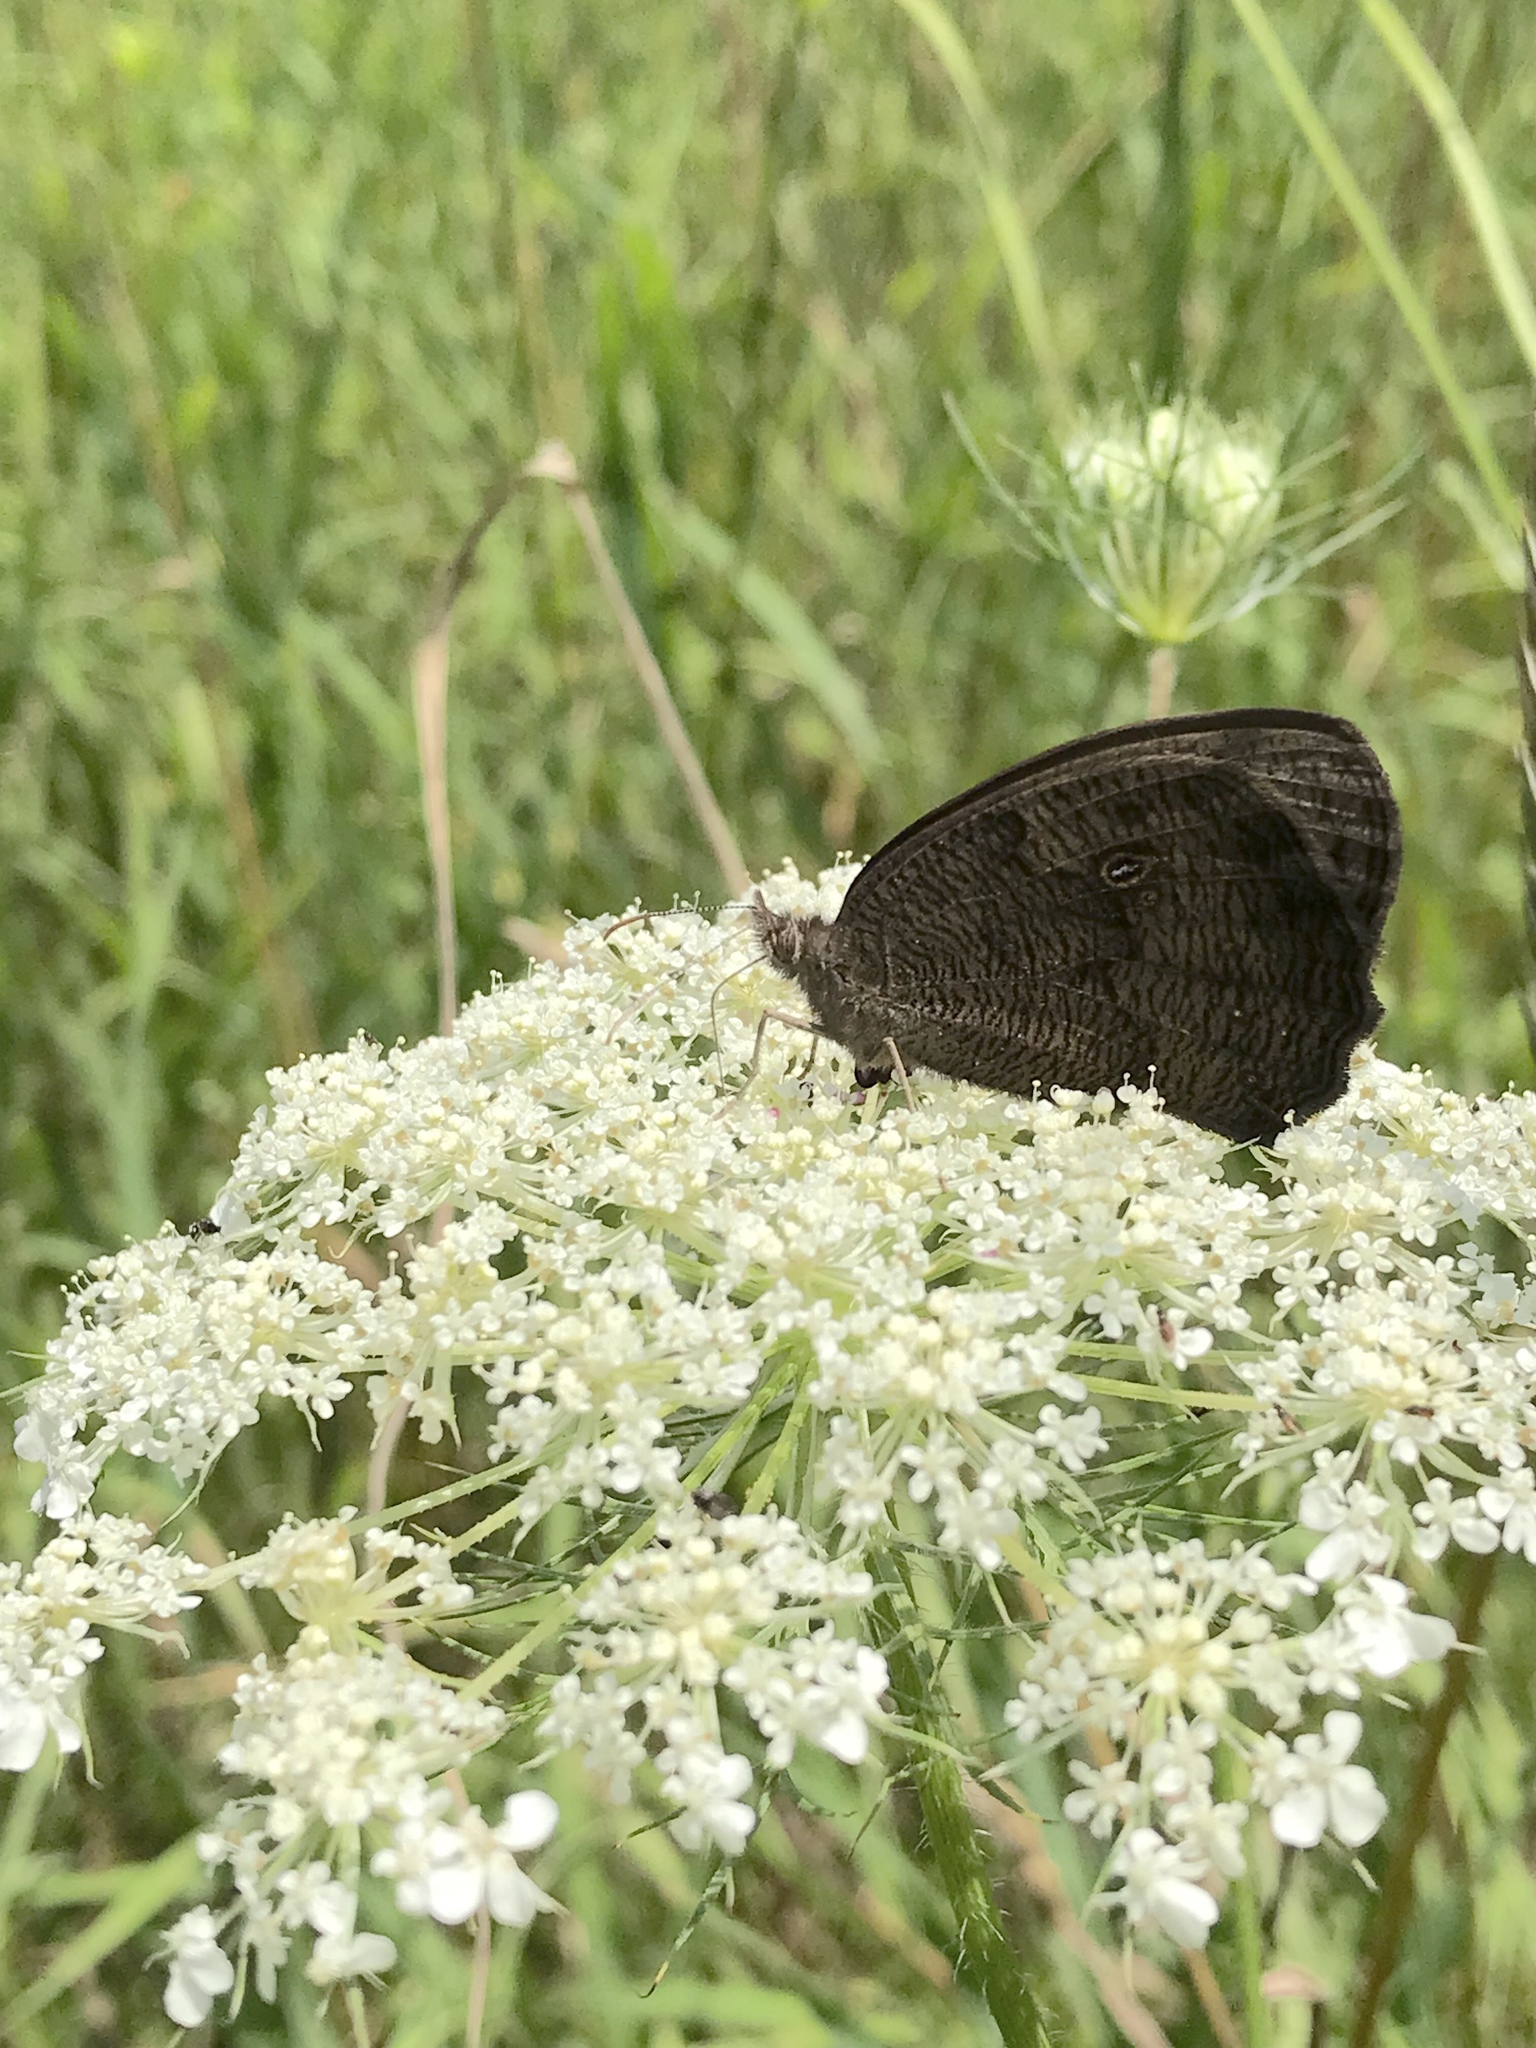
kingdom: Animalia
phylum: Arthropoda
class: Insecta
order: Lepidoptera
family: Nymphalidae
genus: Cercyonis
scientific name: Cercyonis pegala
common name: Common wood-nymph
